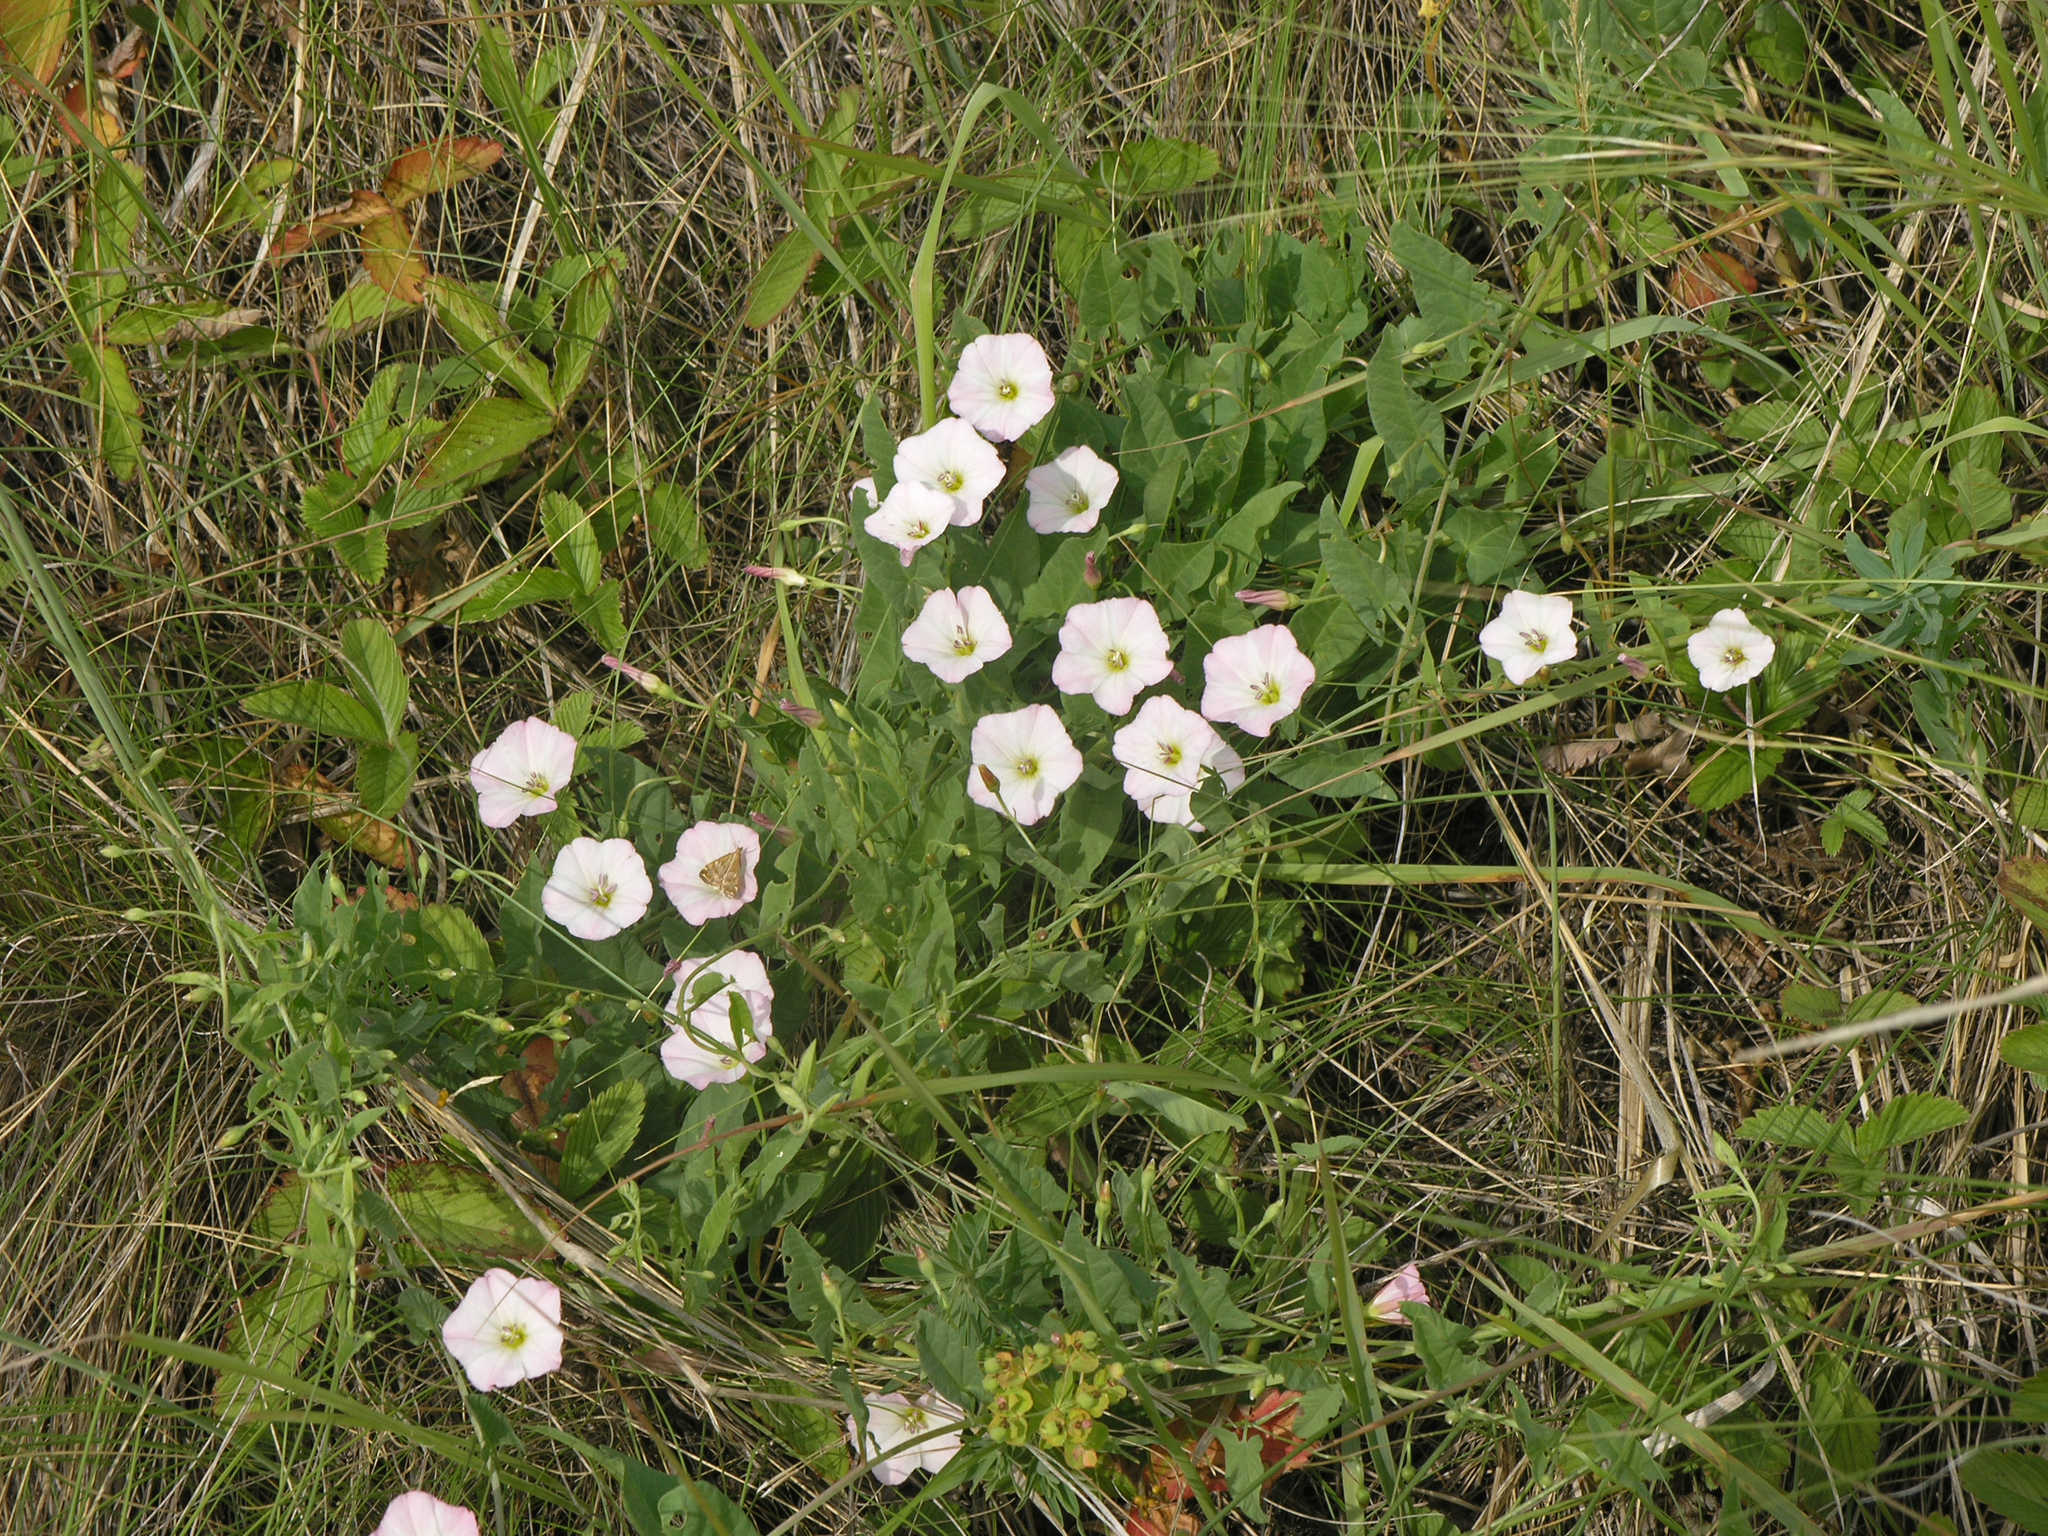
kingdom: Plantae
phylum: Tracheophyta
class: Magnoliopsida
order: Solanales
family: Convolvulaceae
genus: Convolvulus
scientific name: Convolvulus arvensis
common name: Field bindweed
